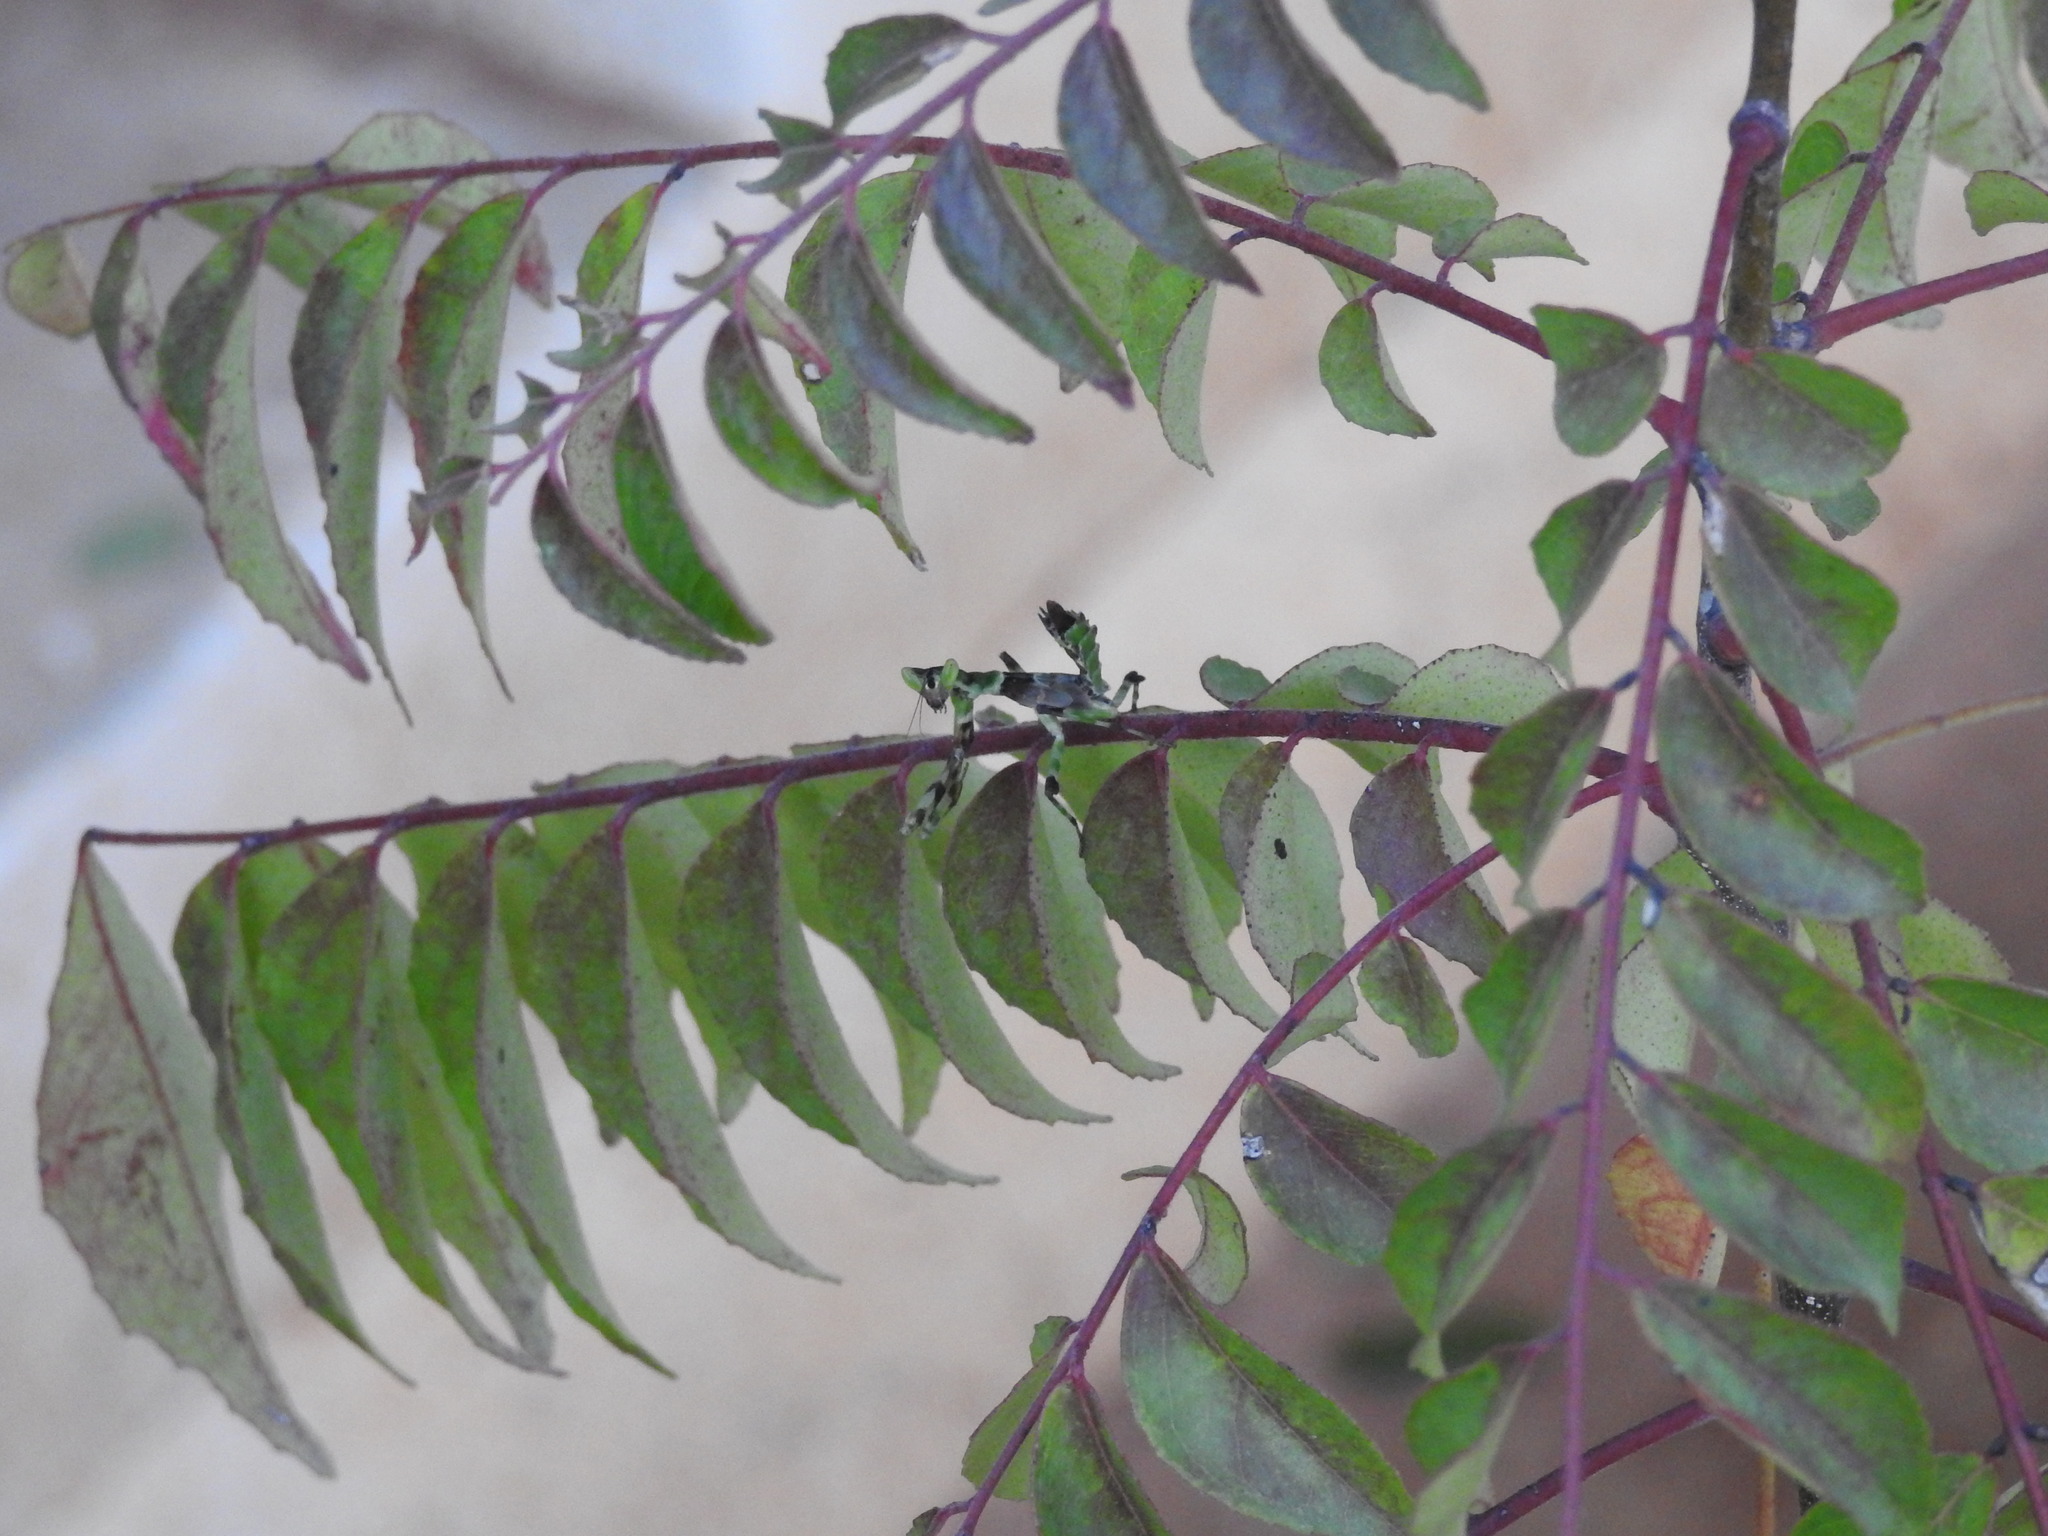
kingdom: Animalia
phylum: Arthropoda
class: Insecta
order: Mantodea
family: Hymenopodidae
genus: Creobroter
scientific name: Creobroter pictipennis
